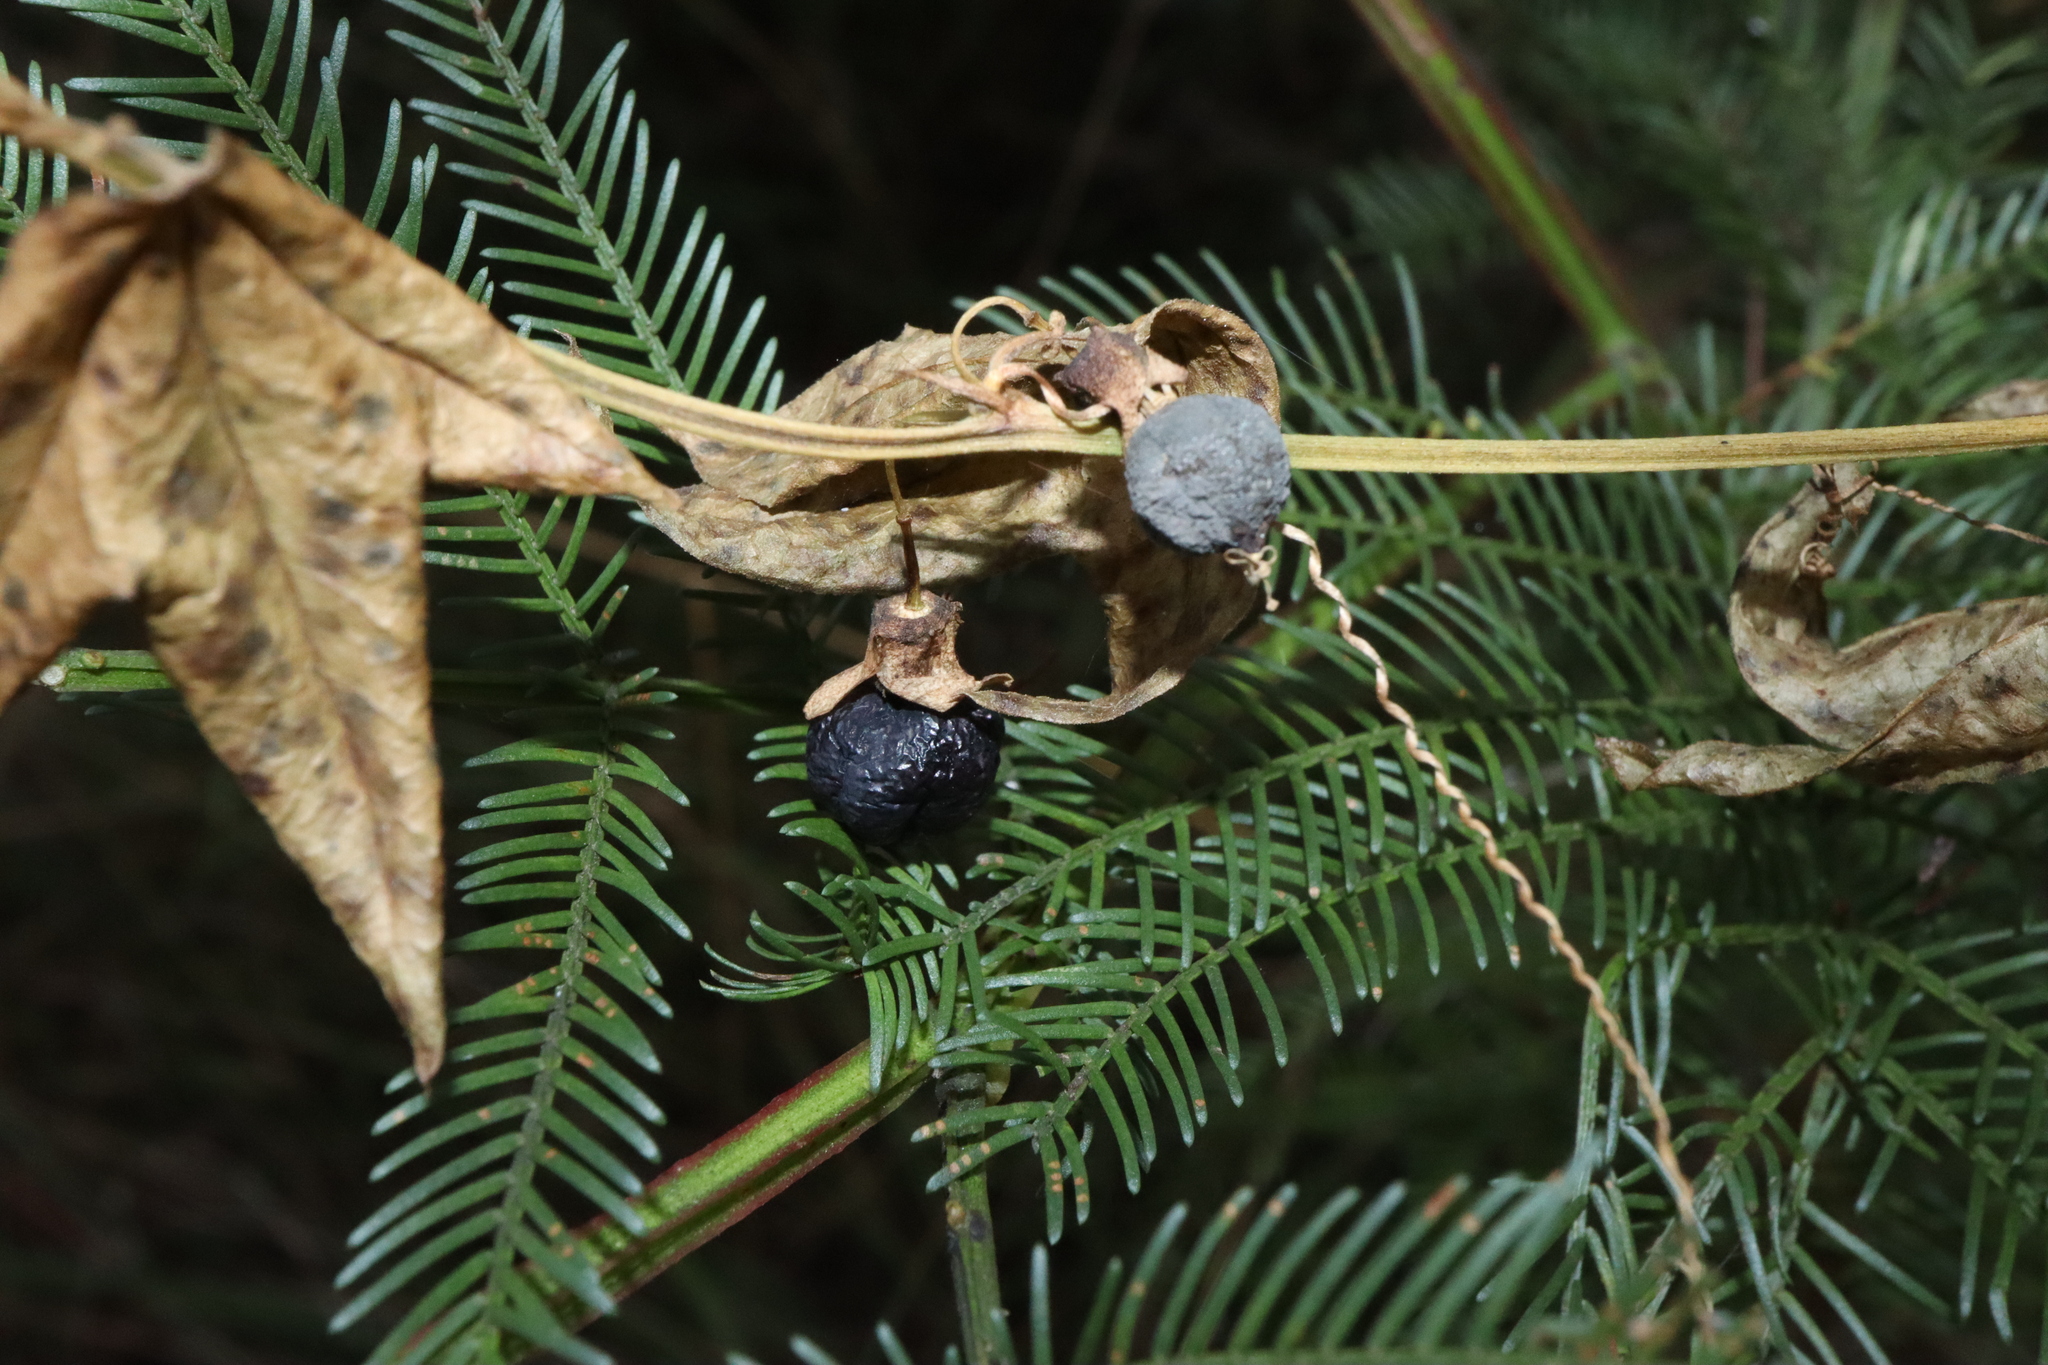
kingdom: Plantae
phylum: Tracheophyta
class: Magnoliopsida
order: Malpighiales
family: Passifloraceae
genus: Passiflora
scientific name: Passiflora suberosa
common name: Wild passionfruit
